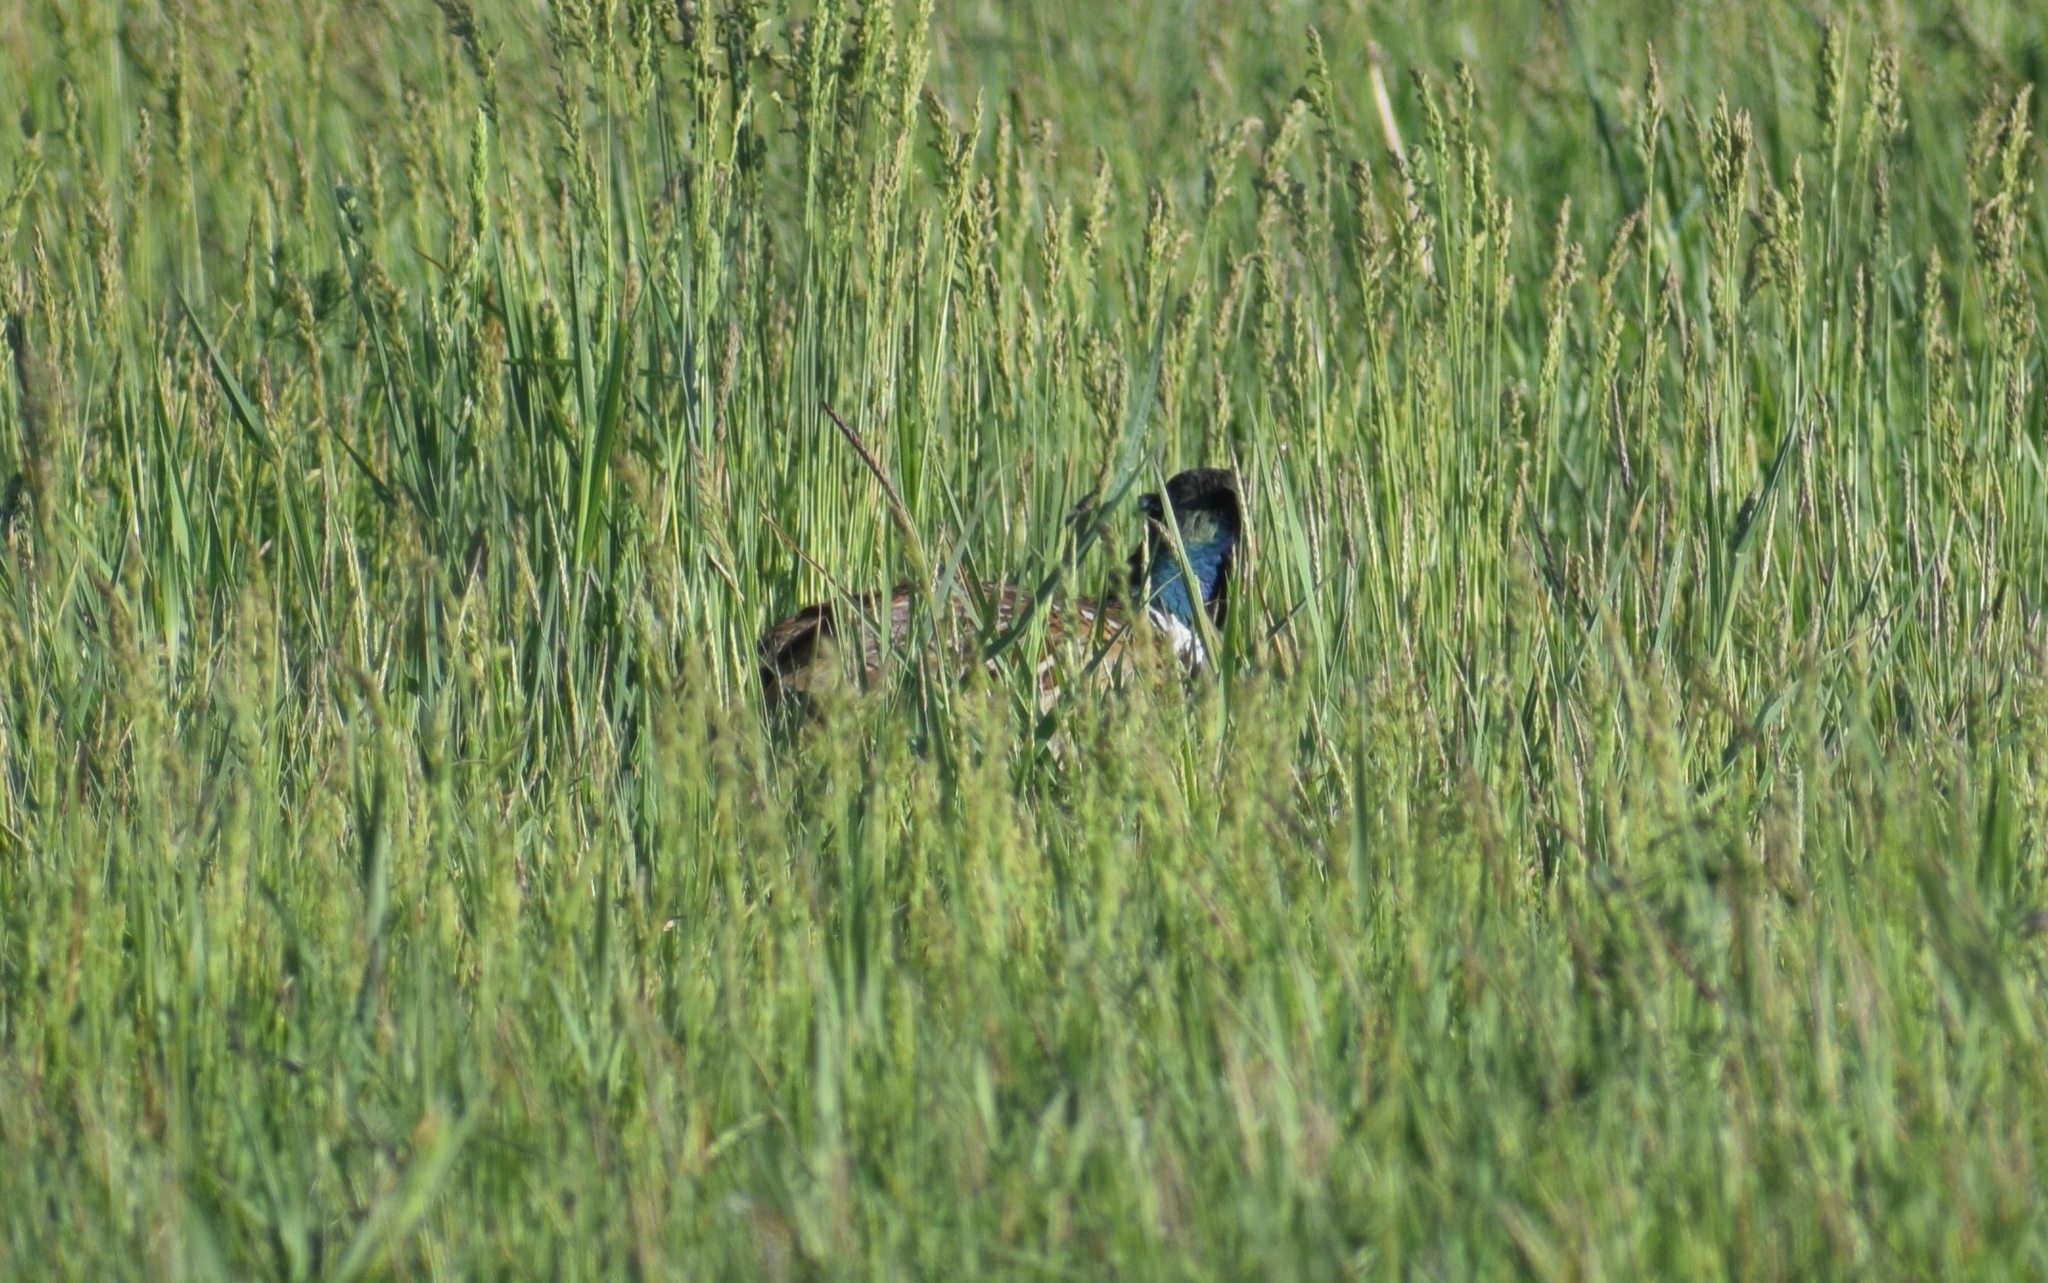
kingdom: Animalia
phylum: Chordata
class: Aves
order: Galliformes
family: Phasianidae
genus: Phasianus
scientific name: Phasianus colchicus
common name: Common pheasant
